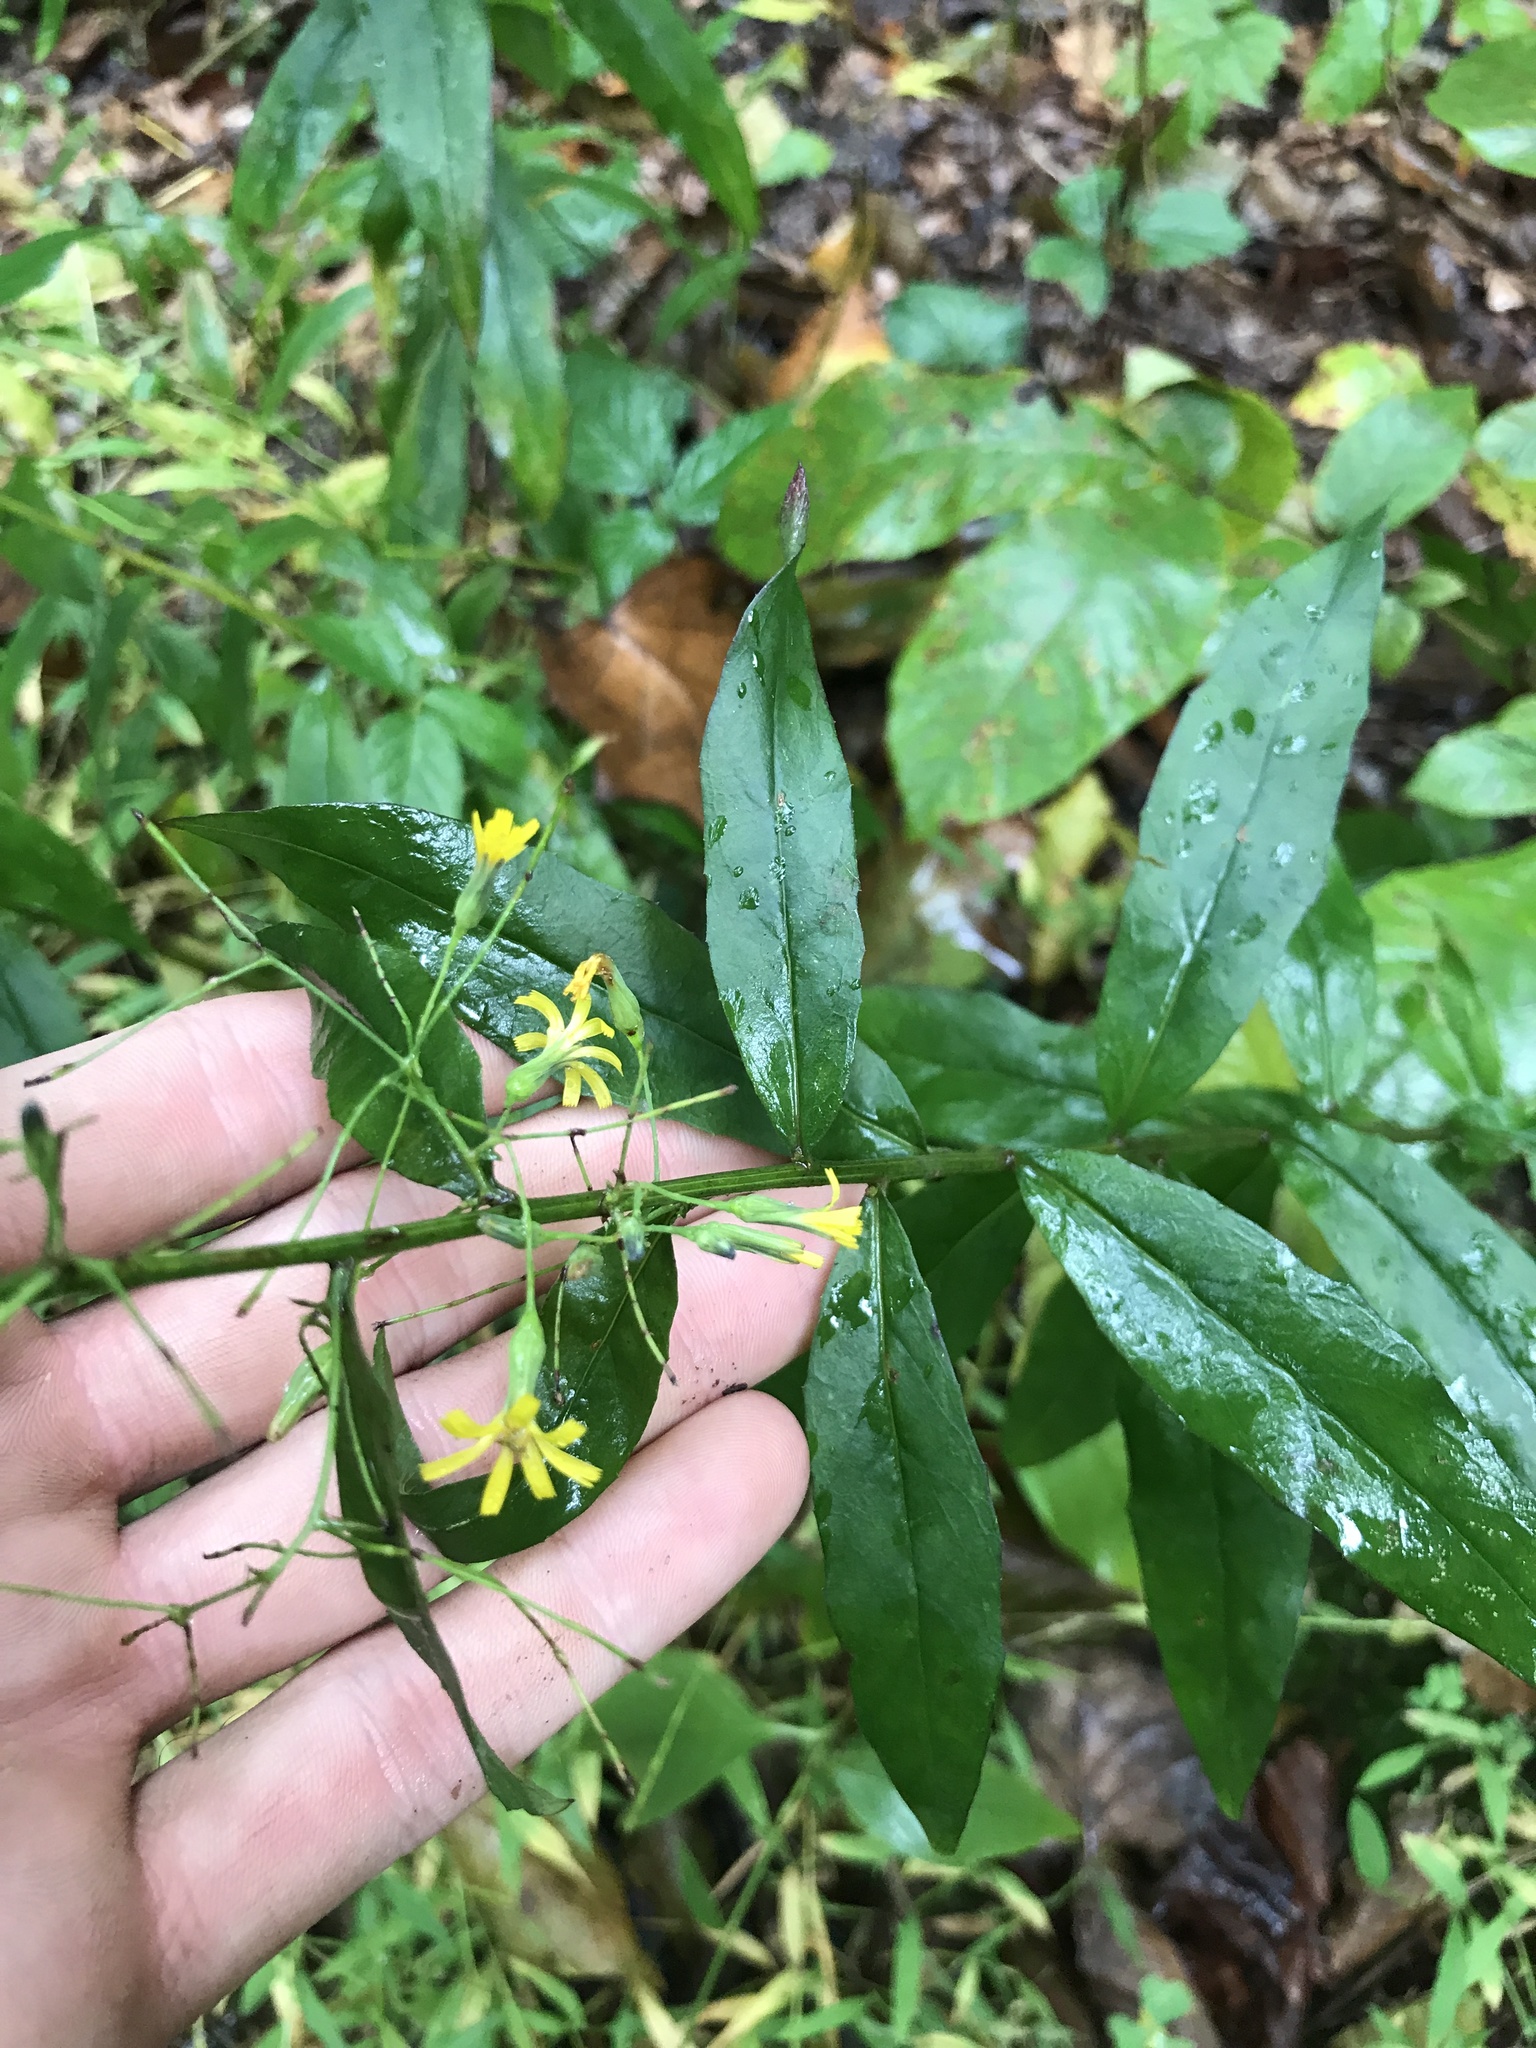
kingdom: Plantae
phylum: Tracheophyta
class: Magnoliopsida
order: Asterales
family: Asteraceae
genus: Hieracium
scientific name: Hieracium paniculatum
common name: Allegheny hawkweed
